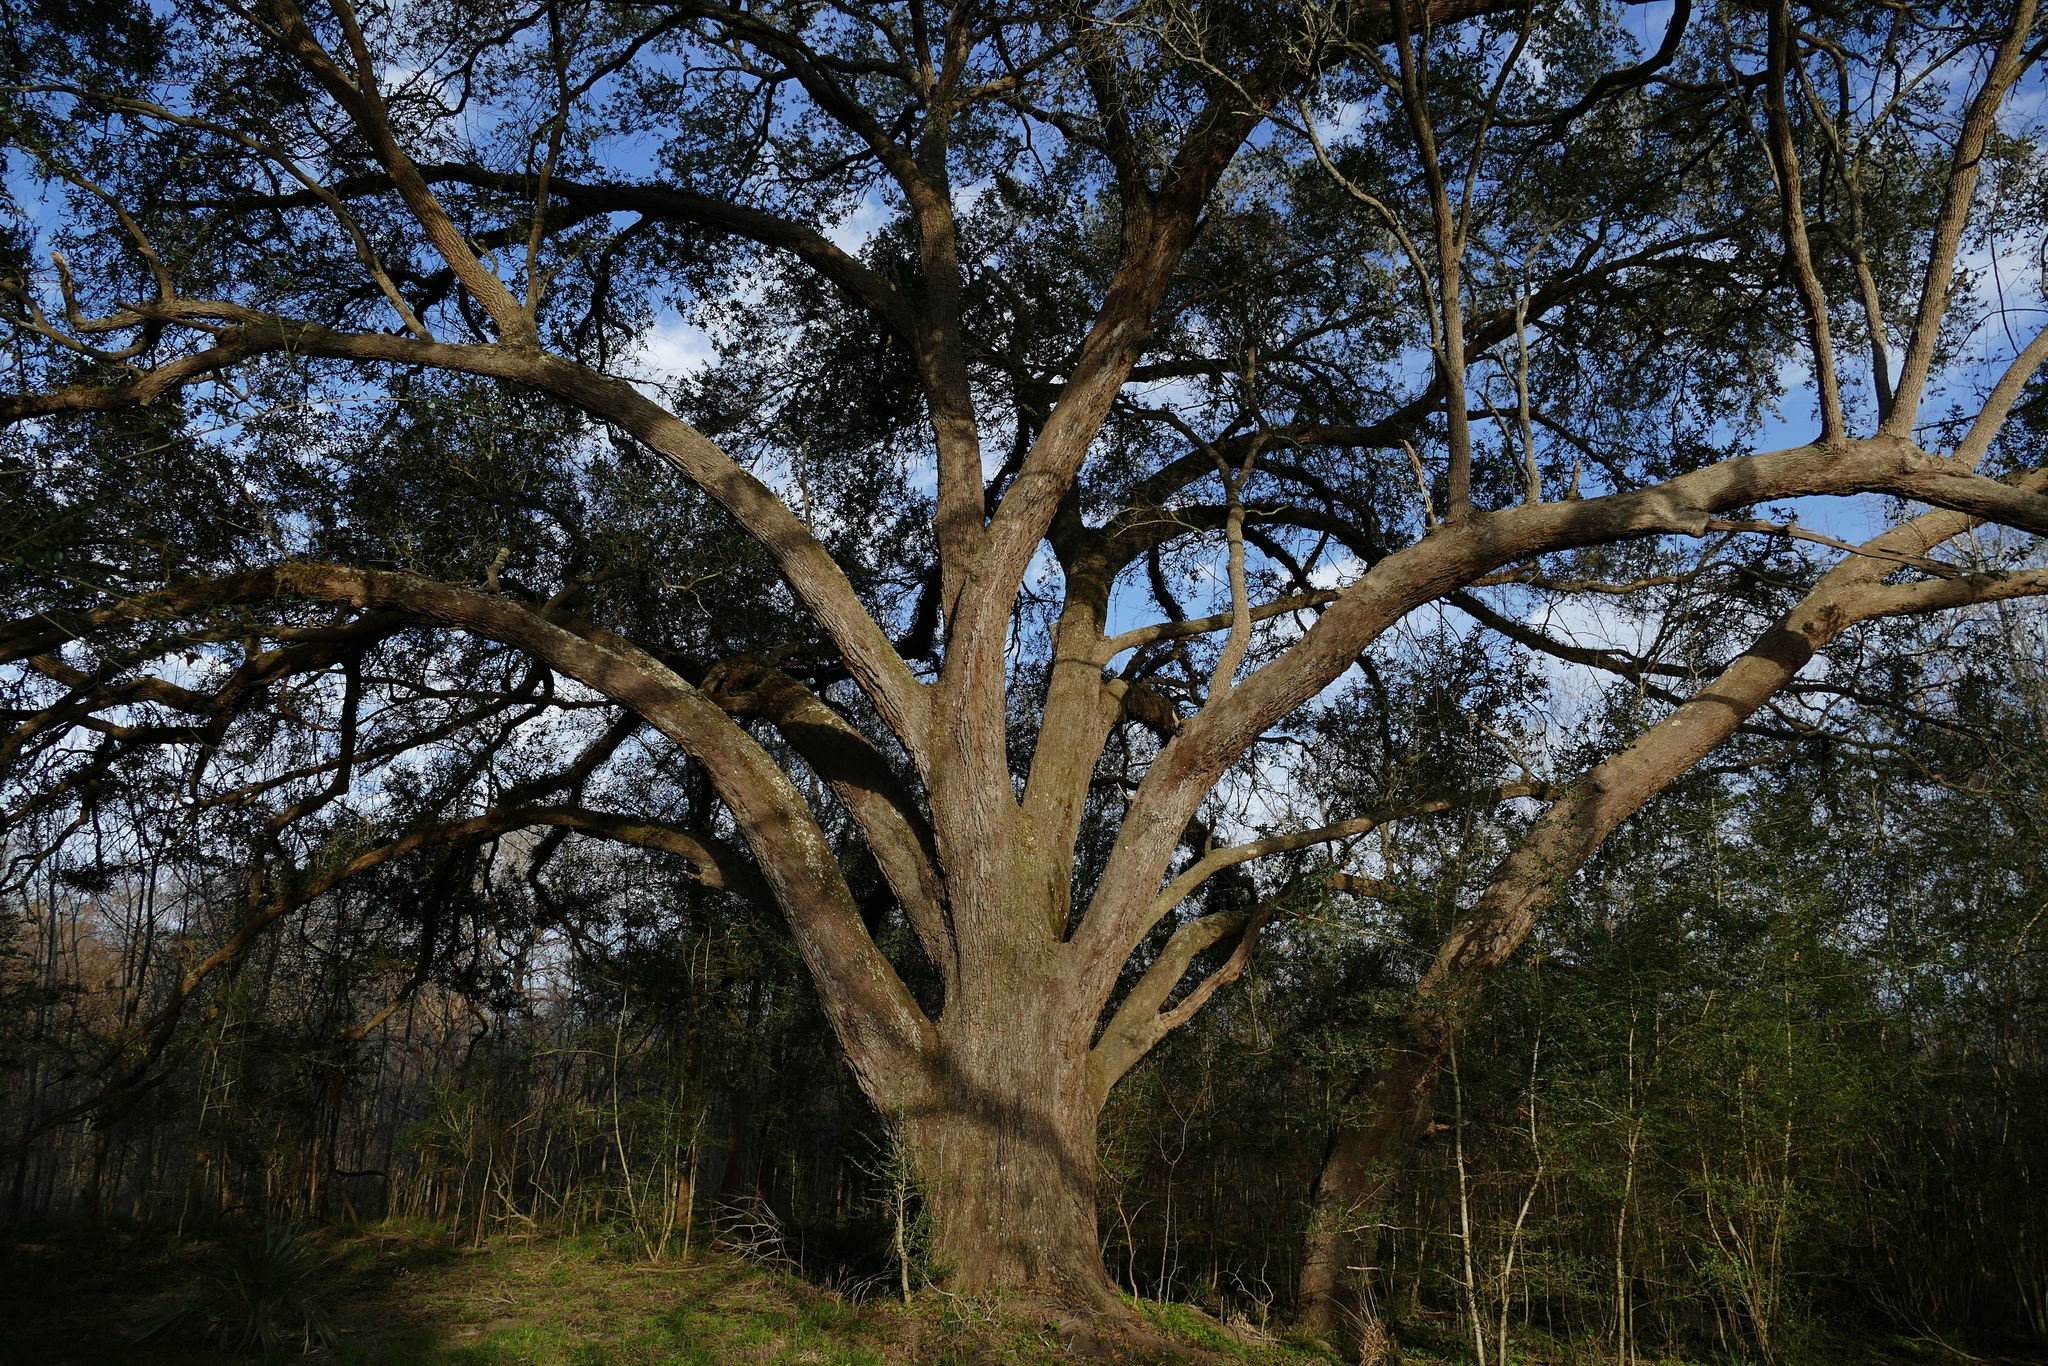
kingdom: Plantae
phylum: Tracheophyta
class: Magnoliopsida
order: Fagales
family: Fagaceae
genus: Quercus
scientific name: Quercus virginiana
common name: Southern live oak
